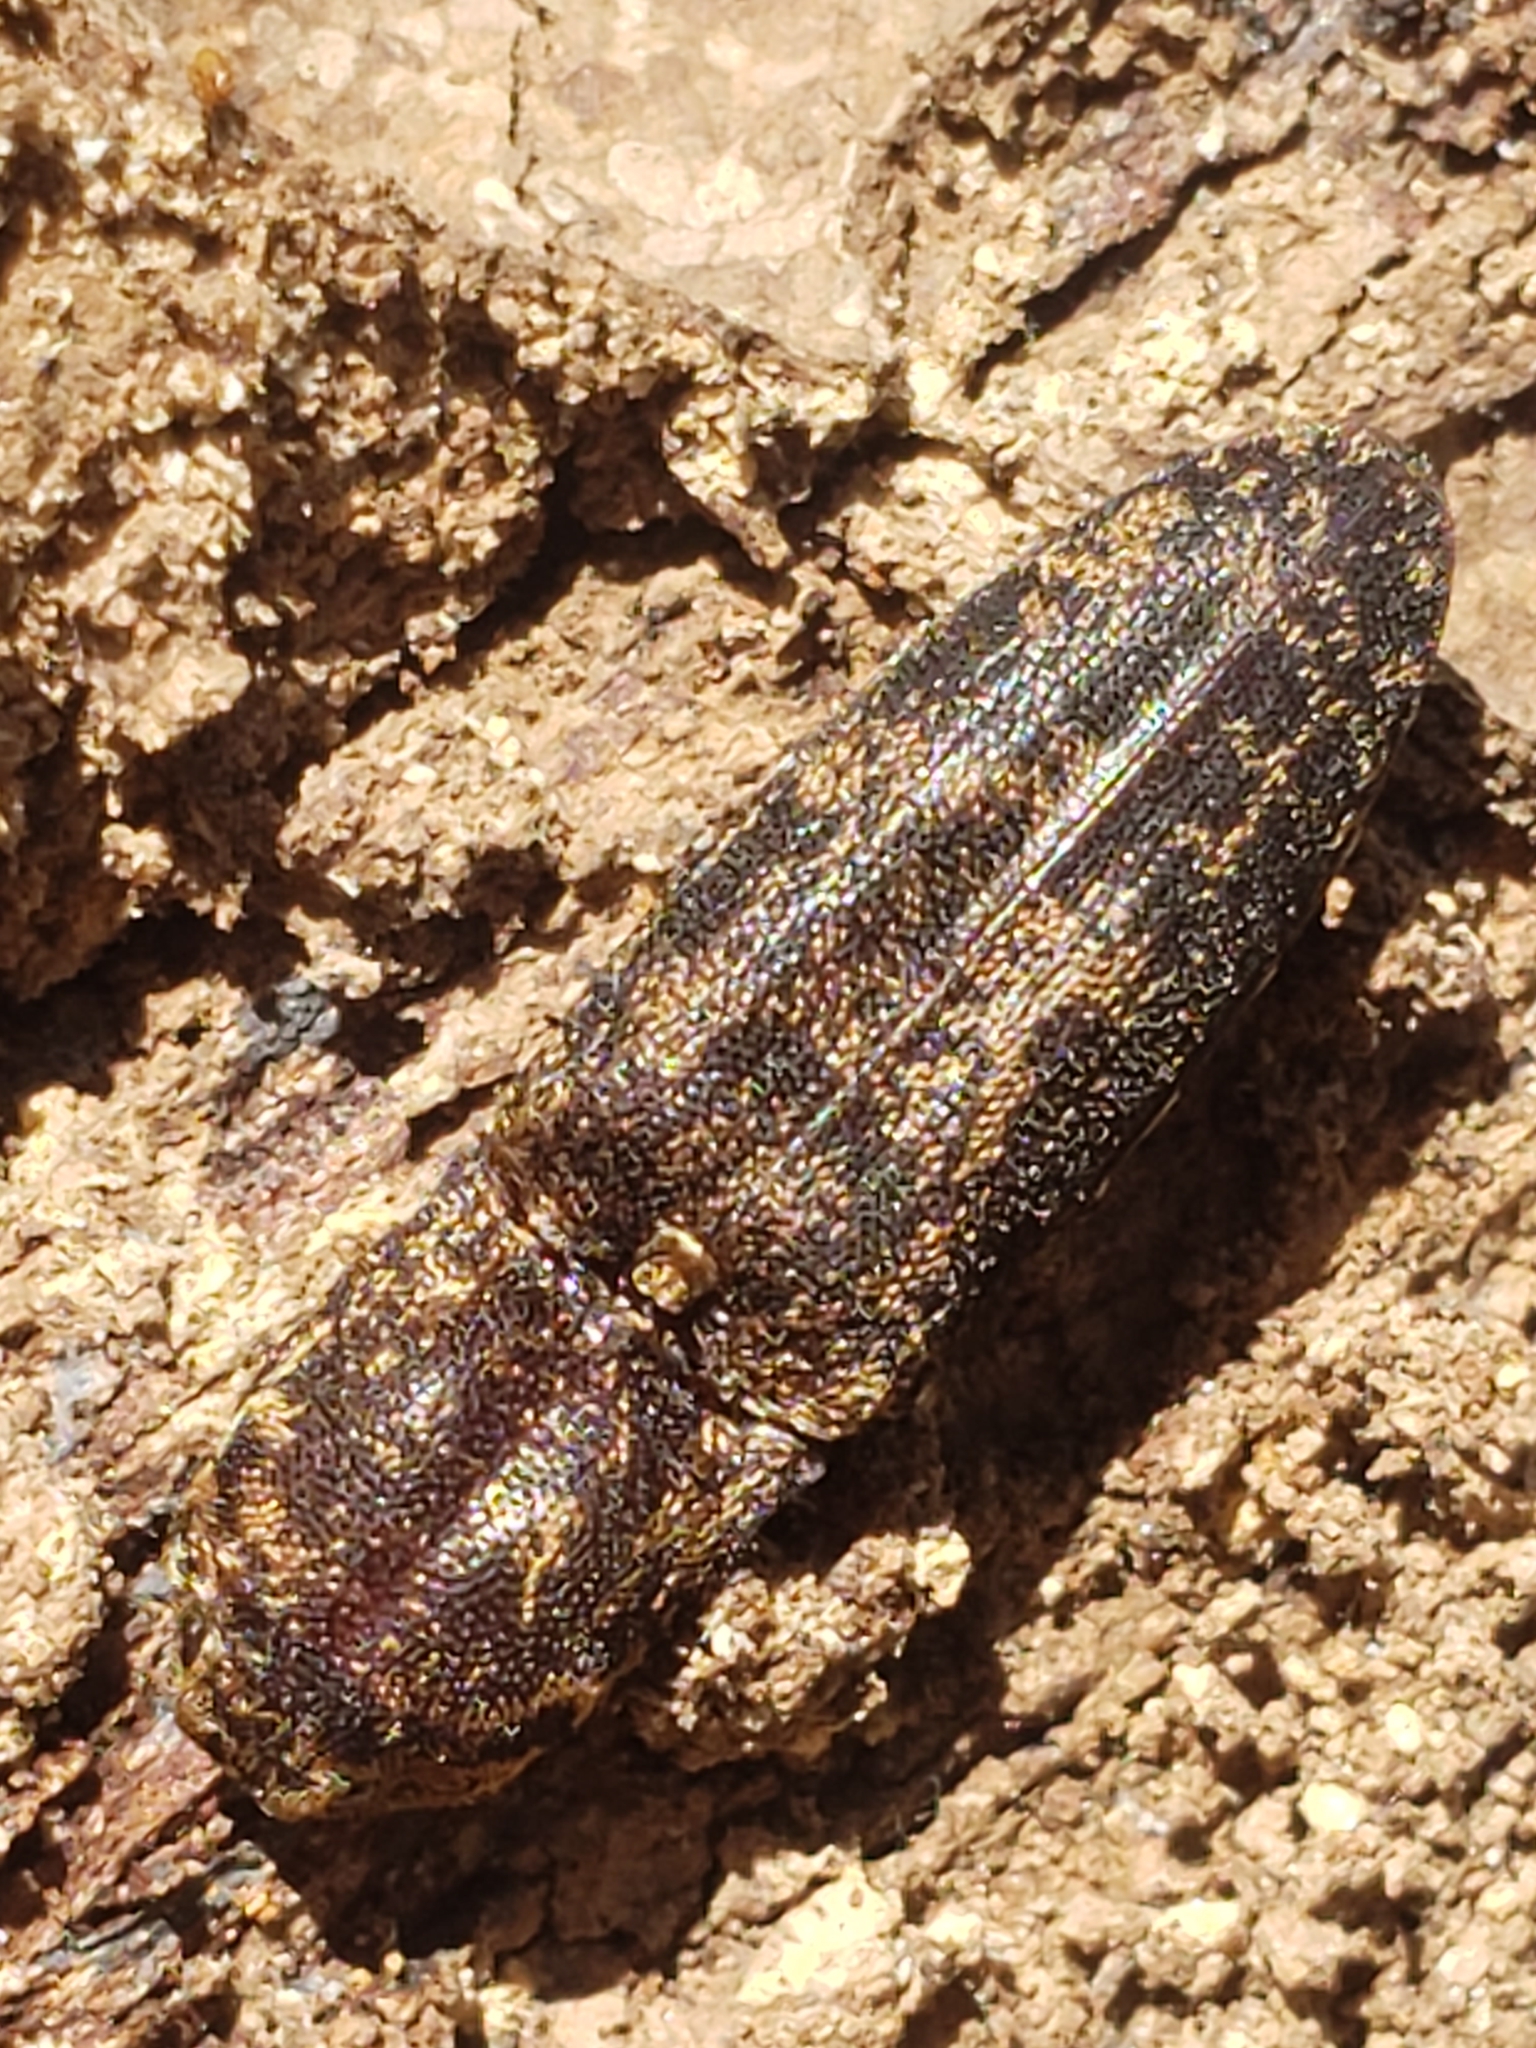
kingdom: Animalia
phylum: Arthropoda
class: Insecta
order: Coleoptera
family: Elateridae
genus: Lacon
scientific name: Lacon marmoratus
